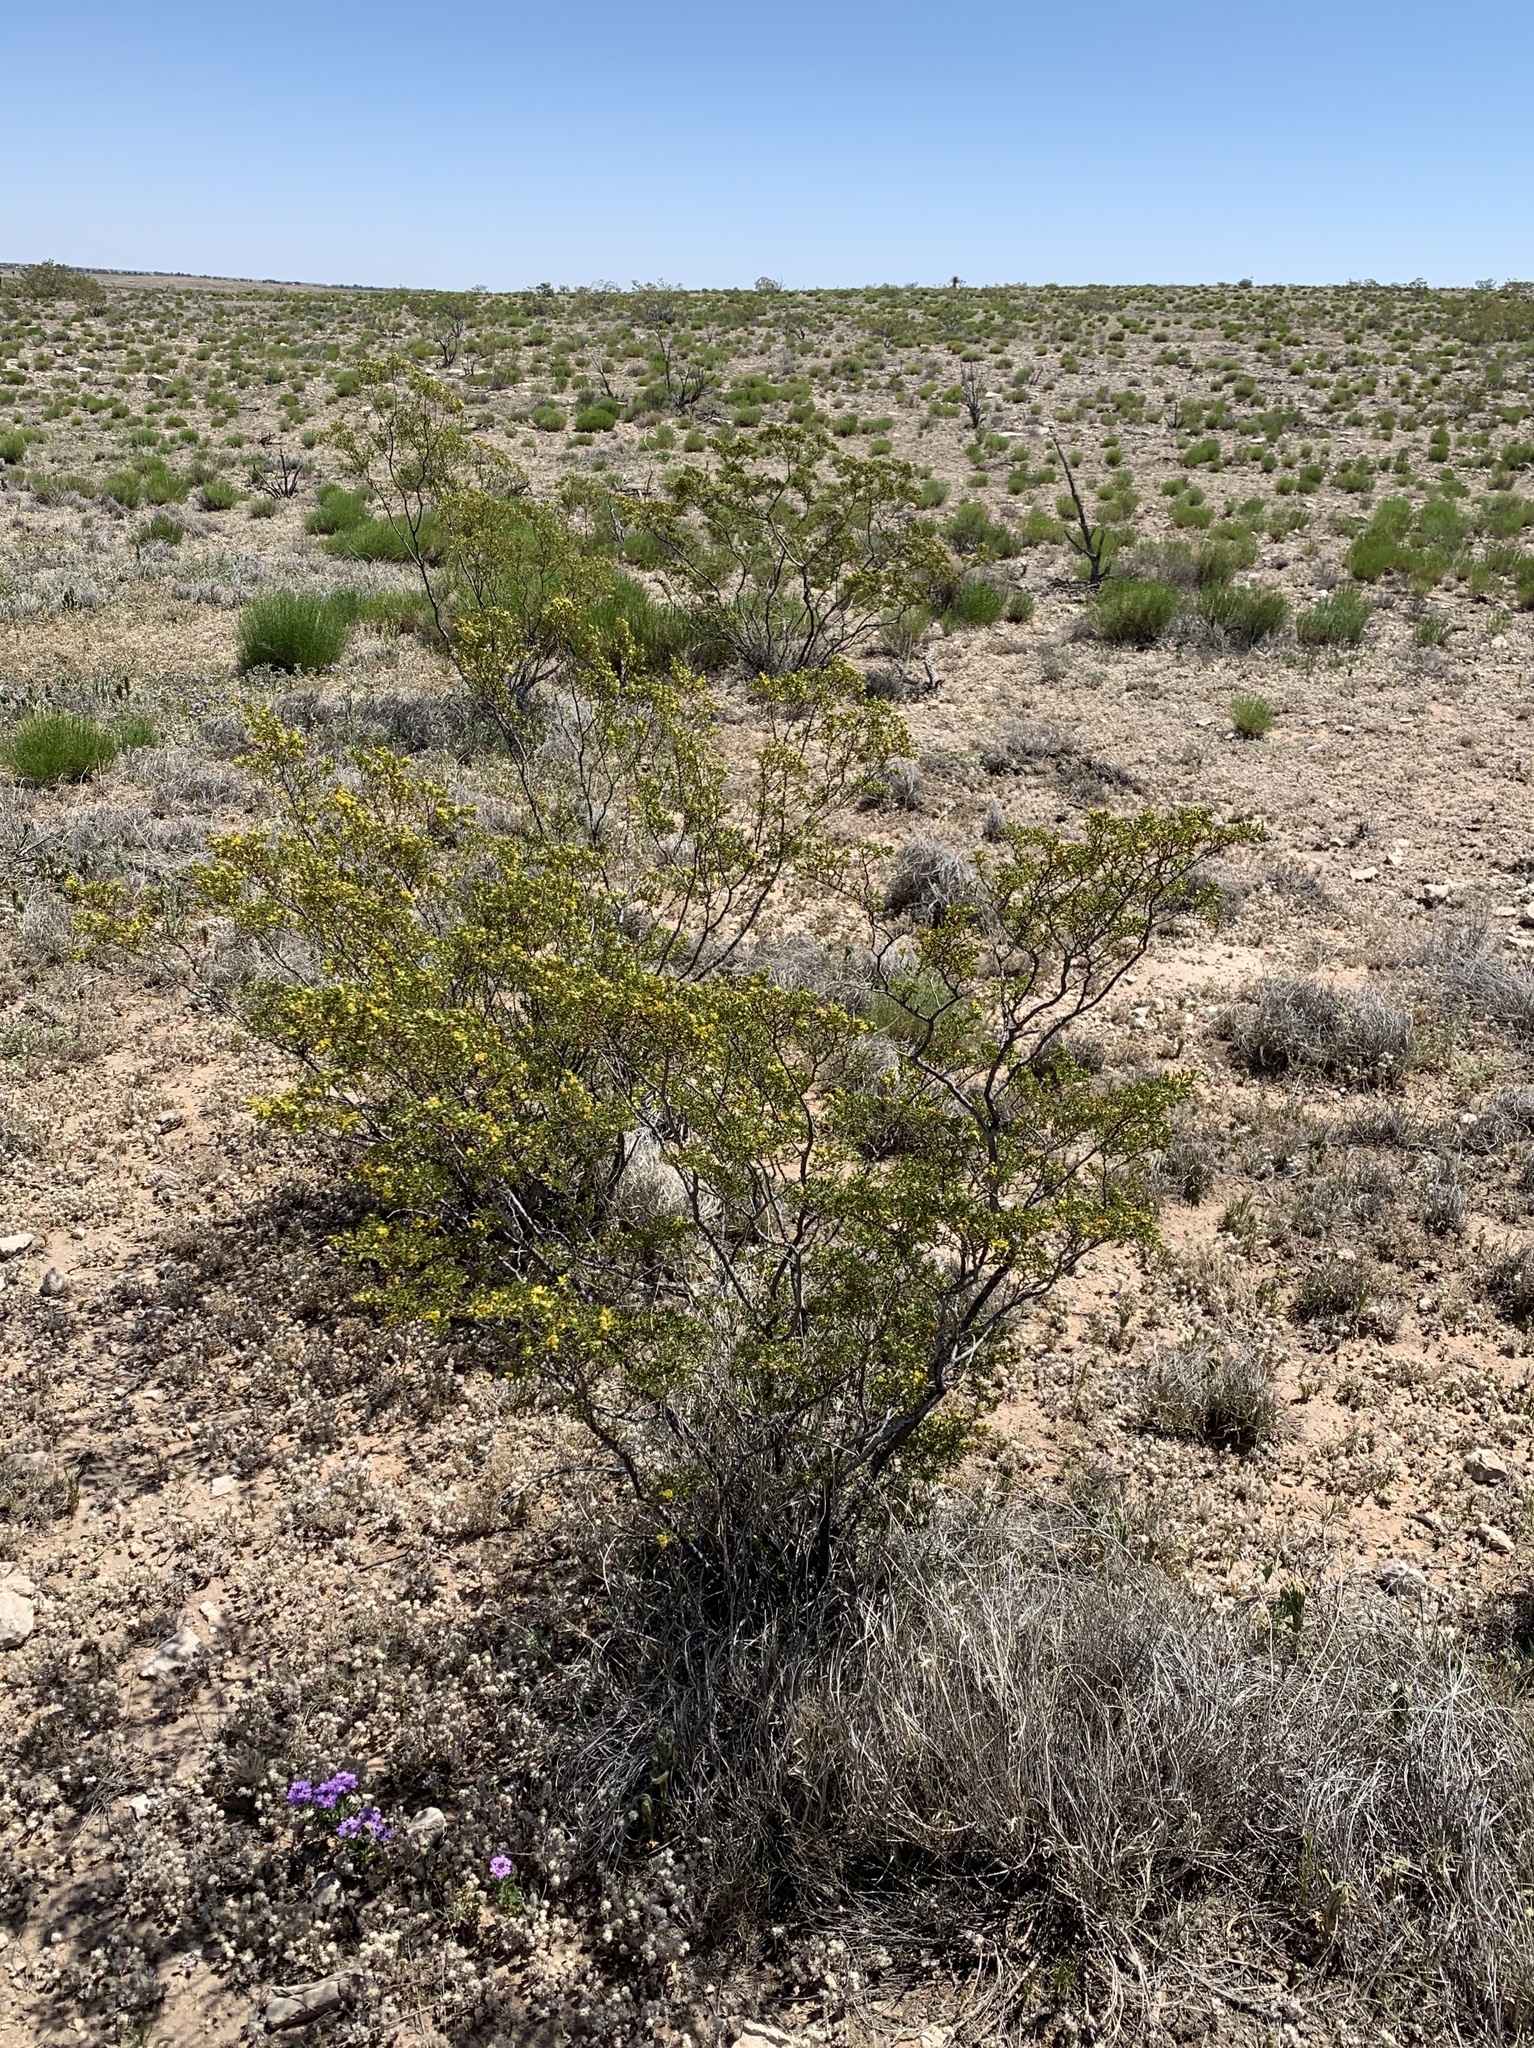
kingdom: Plantae
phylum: Tracheophyta
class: Magnoliopsida
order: Zygophyllales
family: Zygophyllaceae
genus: Larrea
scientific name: Larrea tridentata
